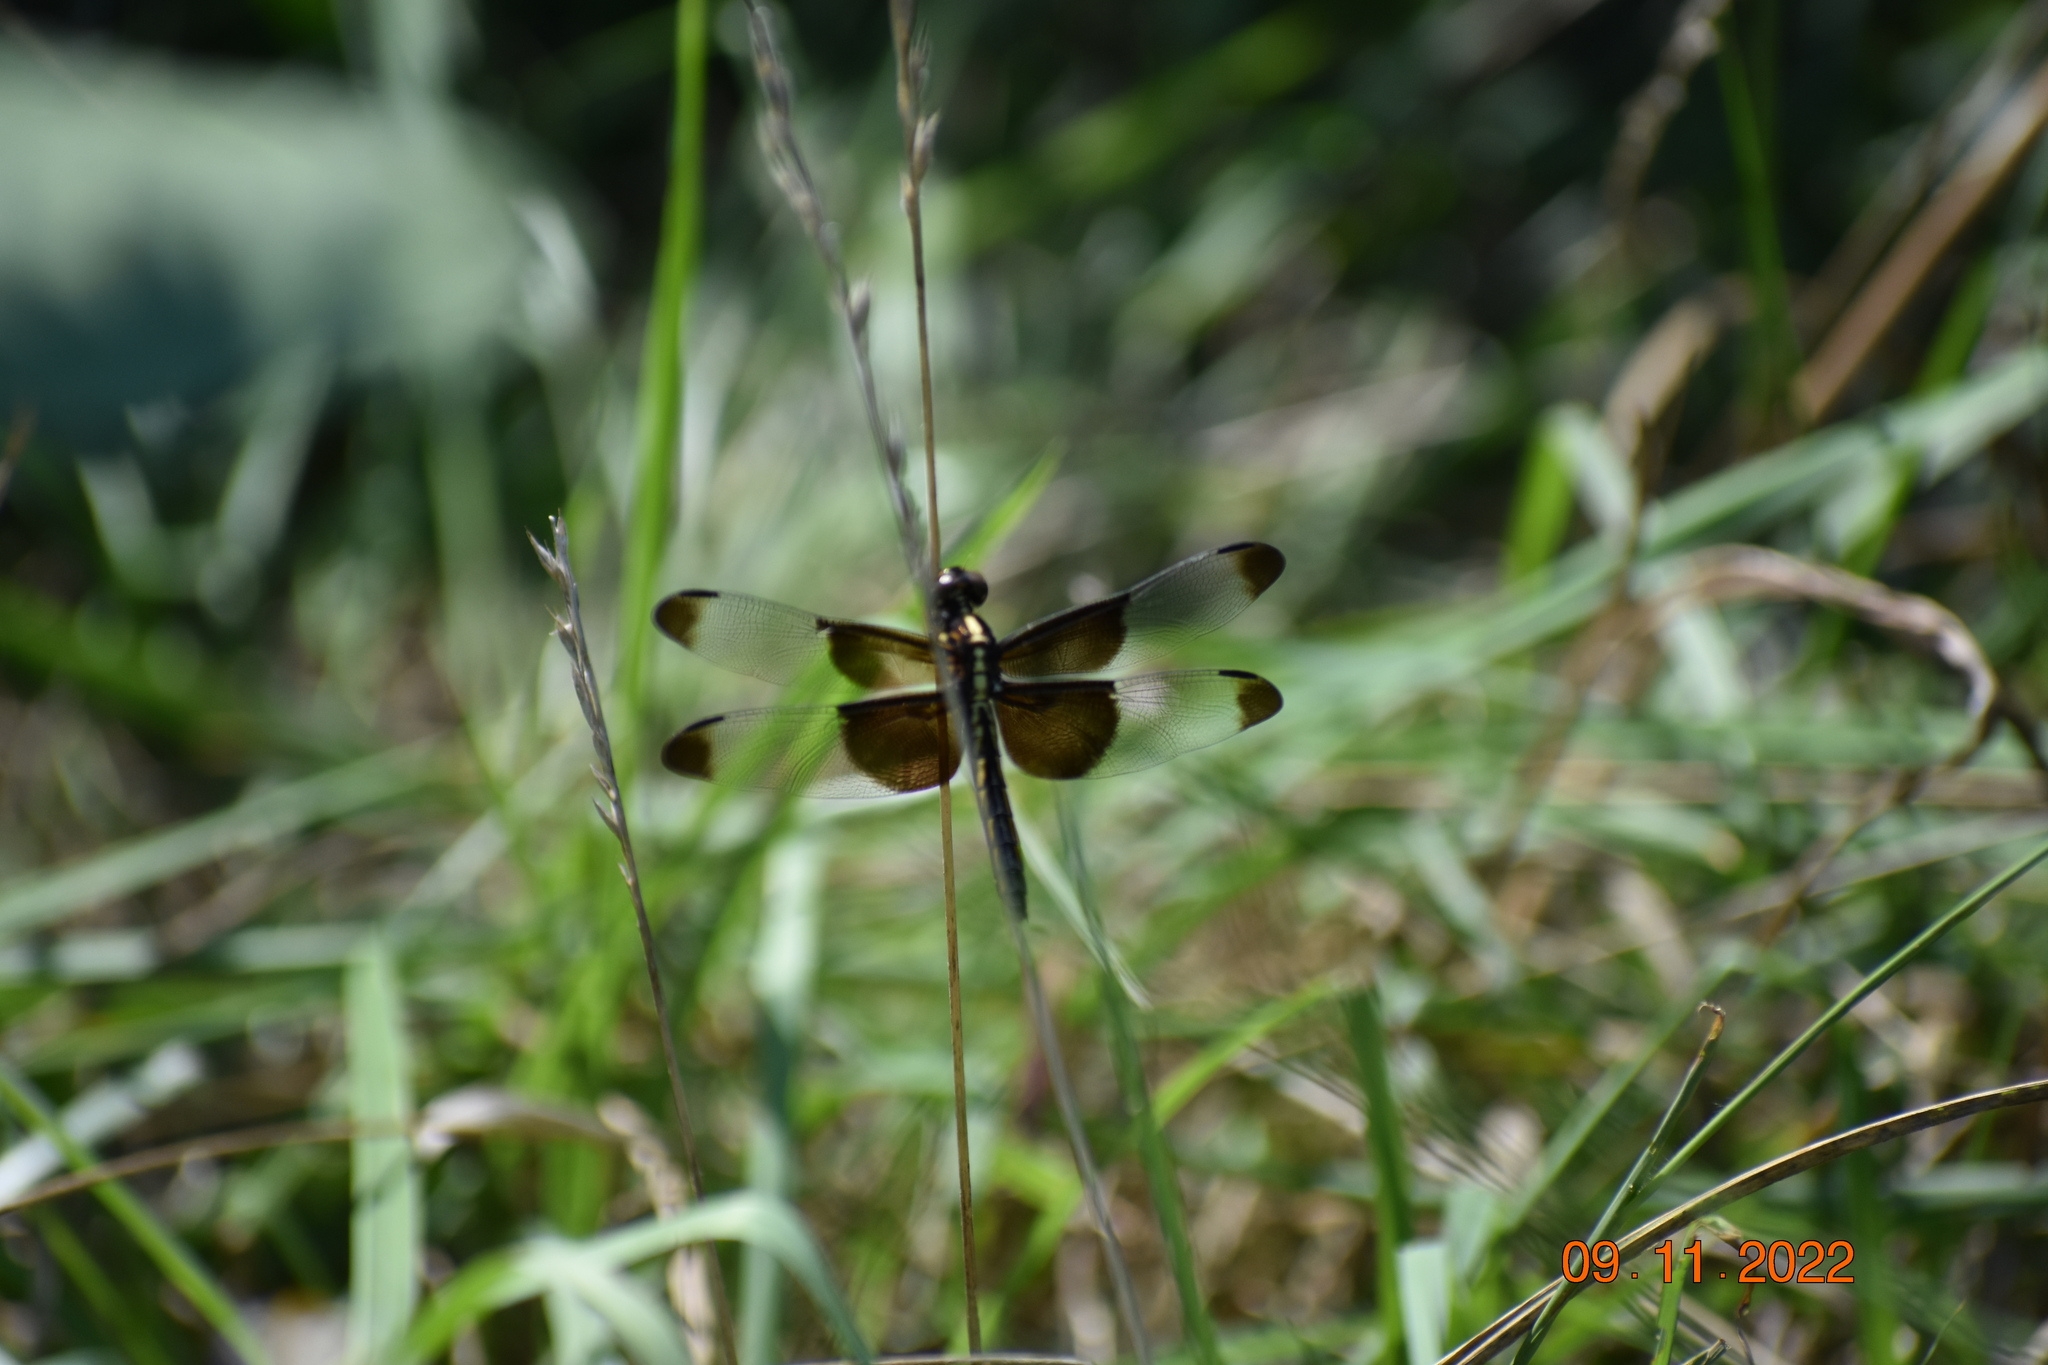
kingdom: Animalia
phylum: Arthropoda
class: Insecta
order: Odonata
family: Libellulidae
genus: Libellula
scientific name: Libellula luctuosa
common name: Widow skimmer
